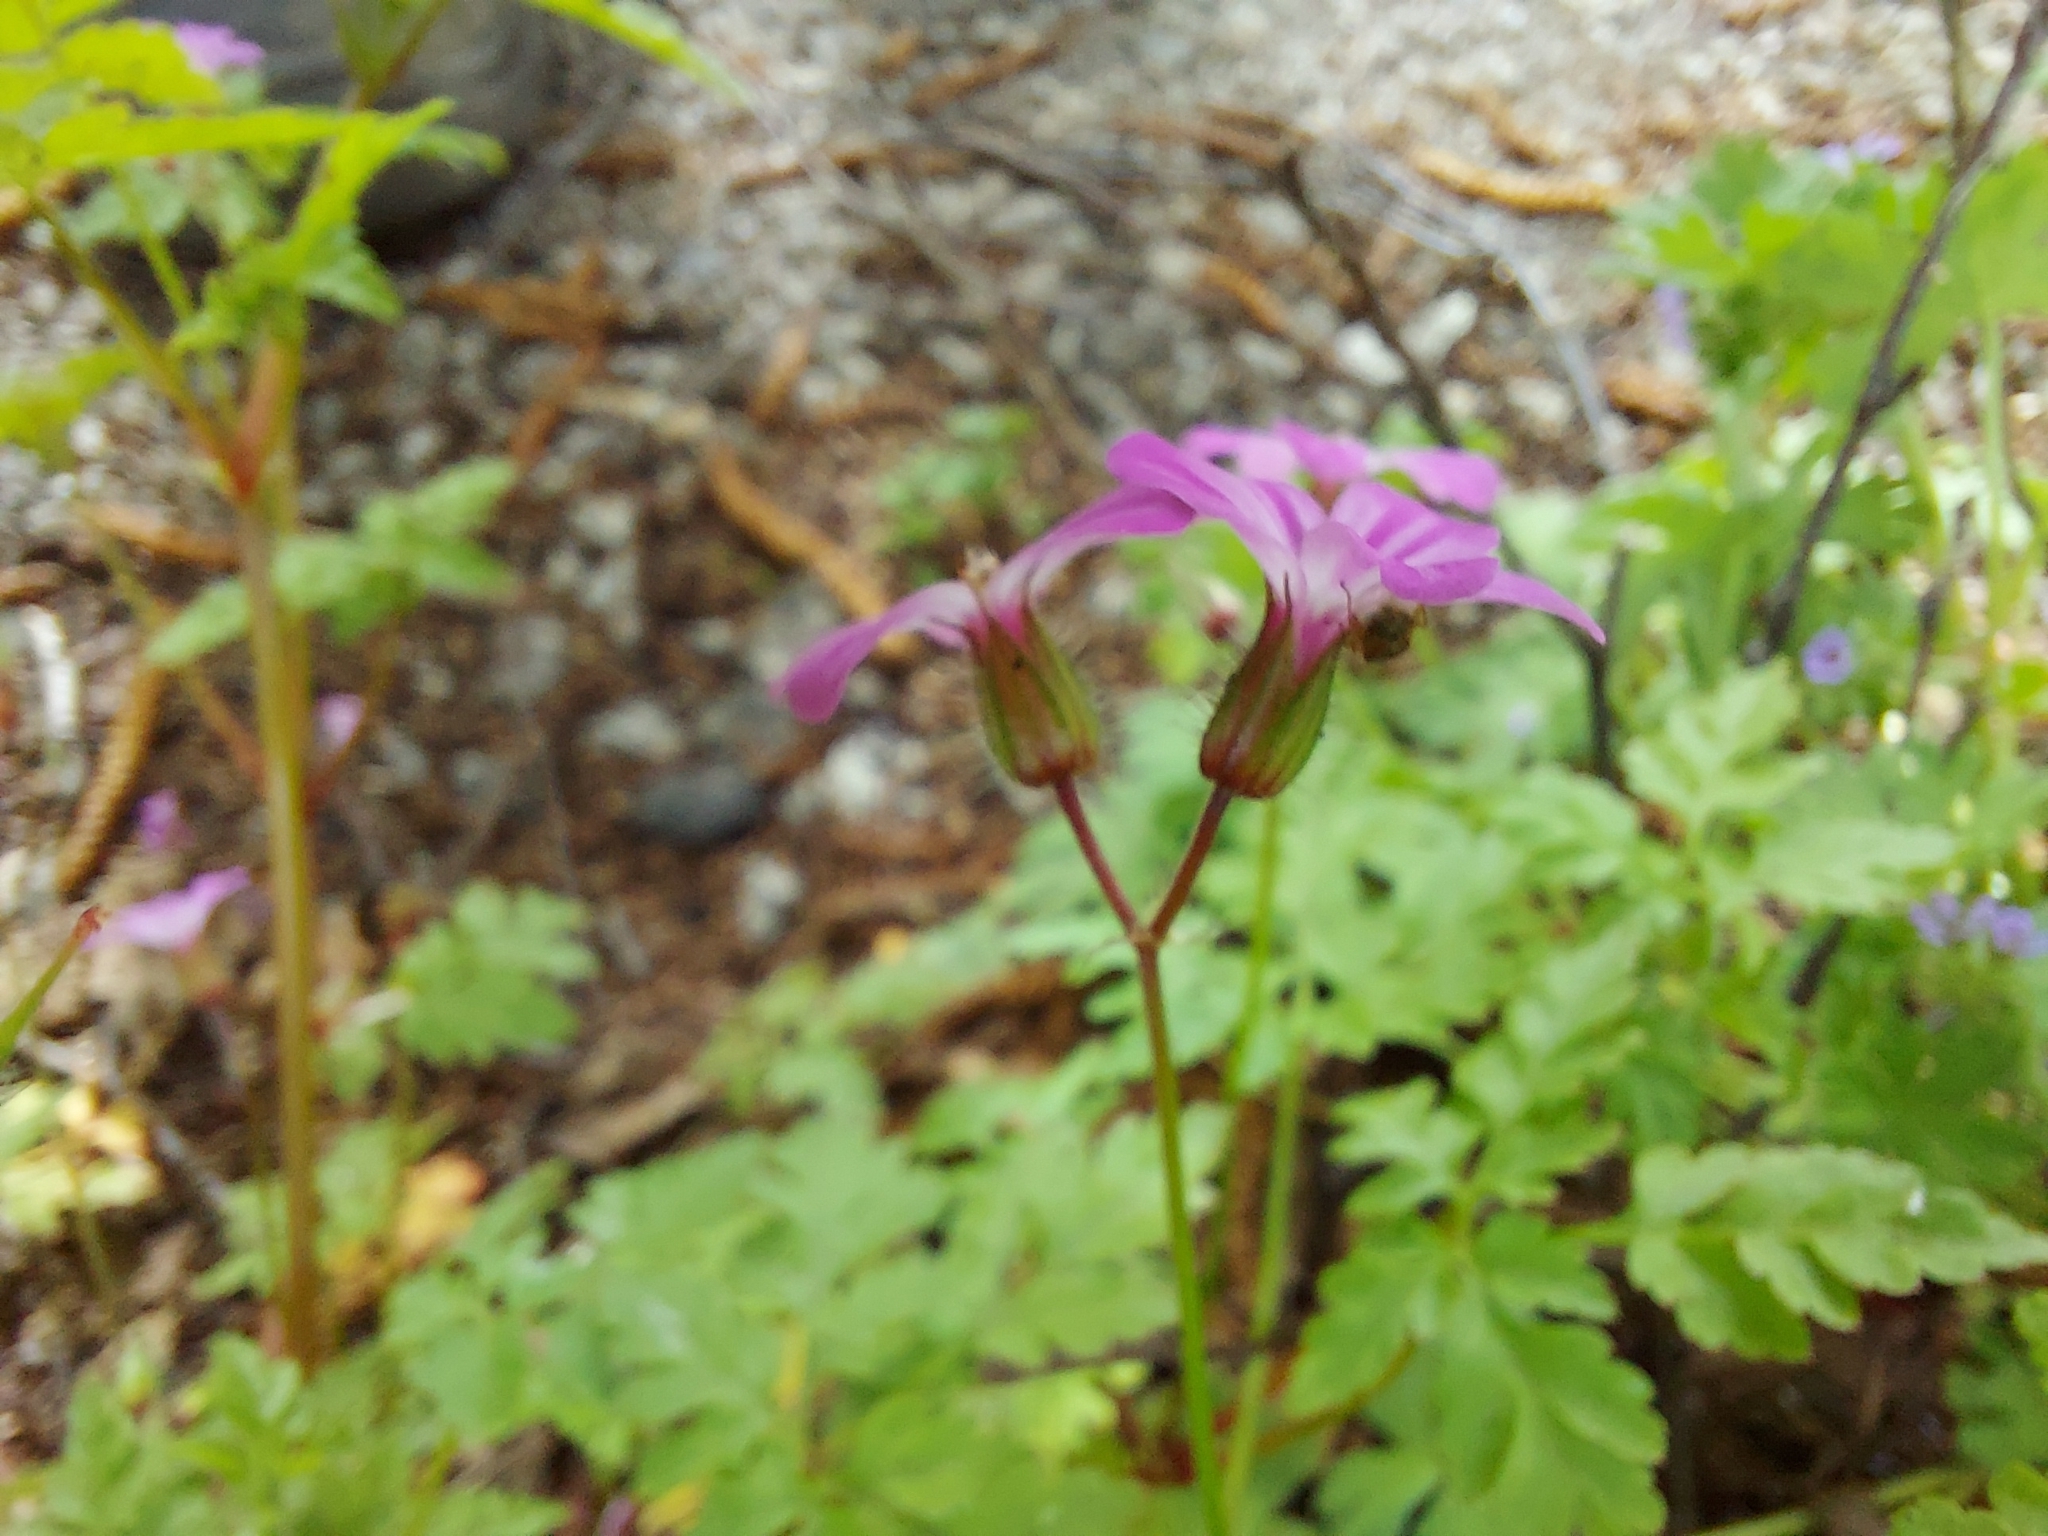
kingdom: Plantae
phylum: Tracheophyta
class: Magnoliopsida
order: Geraniales
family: Geraniaceae
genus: Geranium
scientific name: Geranium robertianum
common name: Herb-robert
